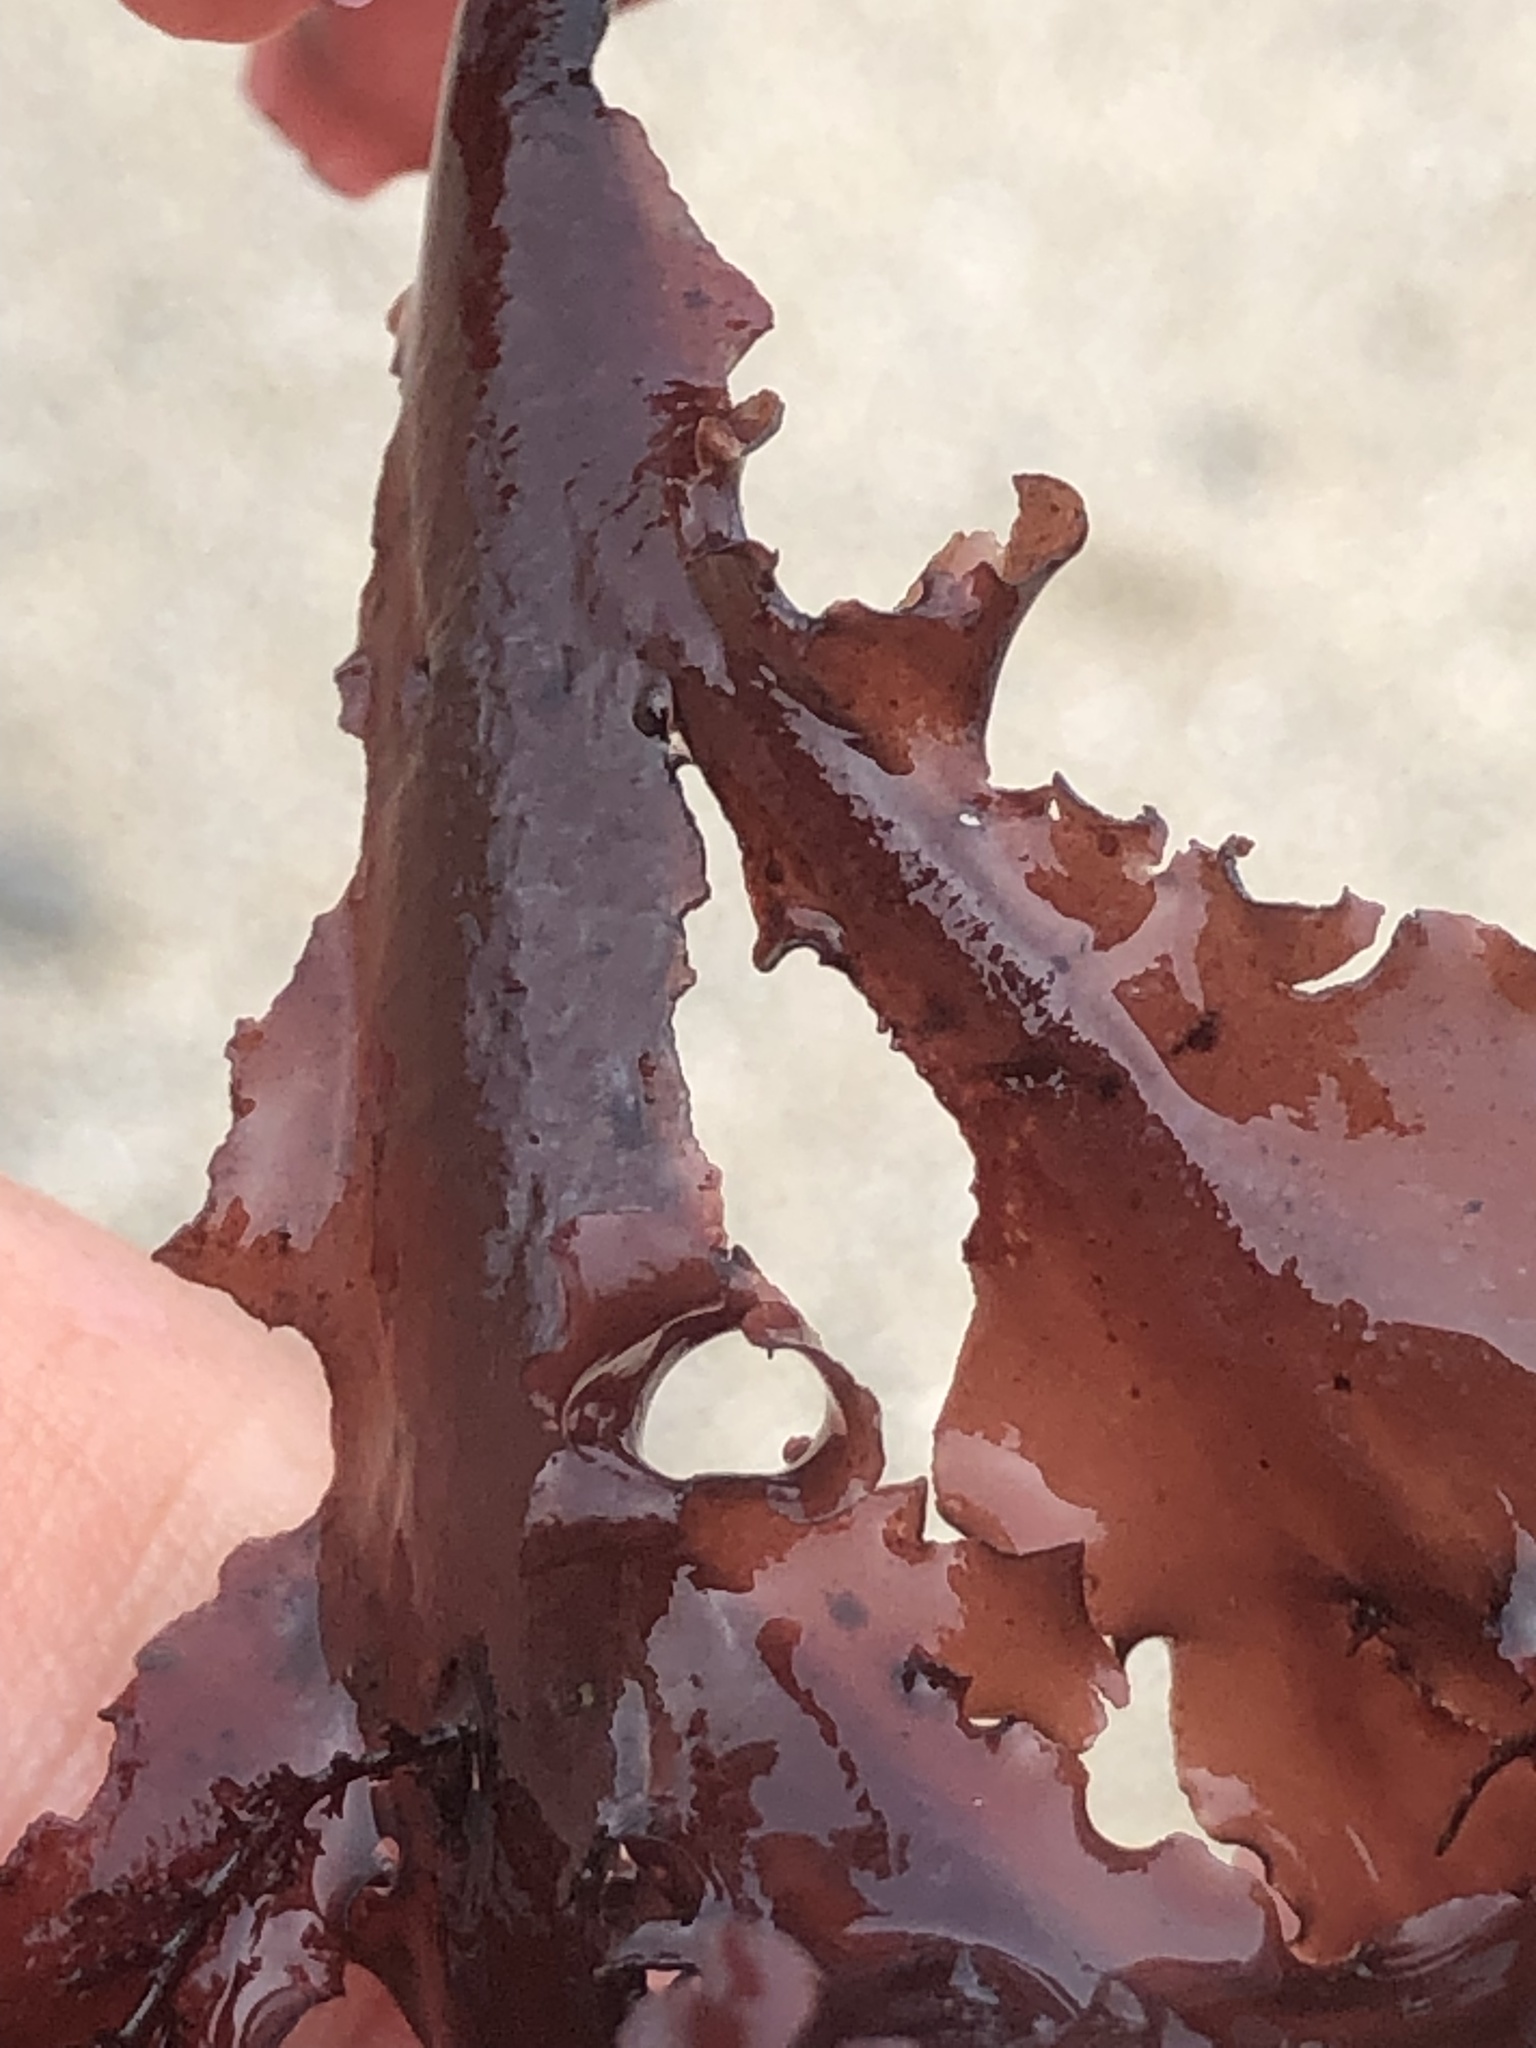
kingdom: Plantae
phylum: Rhodophyta
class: Florideophyceae
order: Ceramiales
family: Delesseriaceae
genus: Hymenena
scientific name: Hymenena flabelligera
